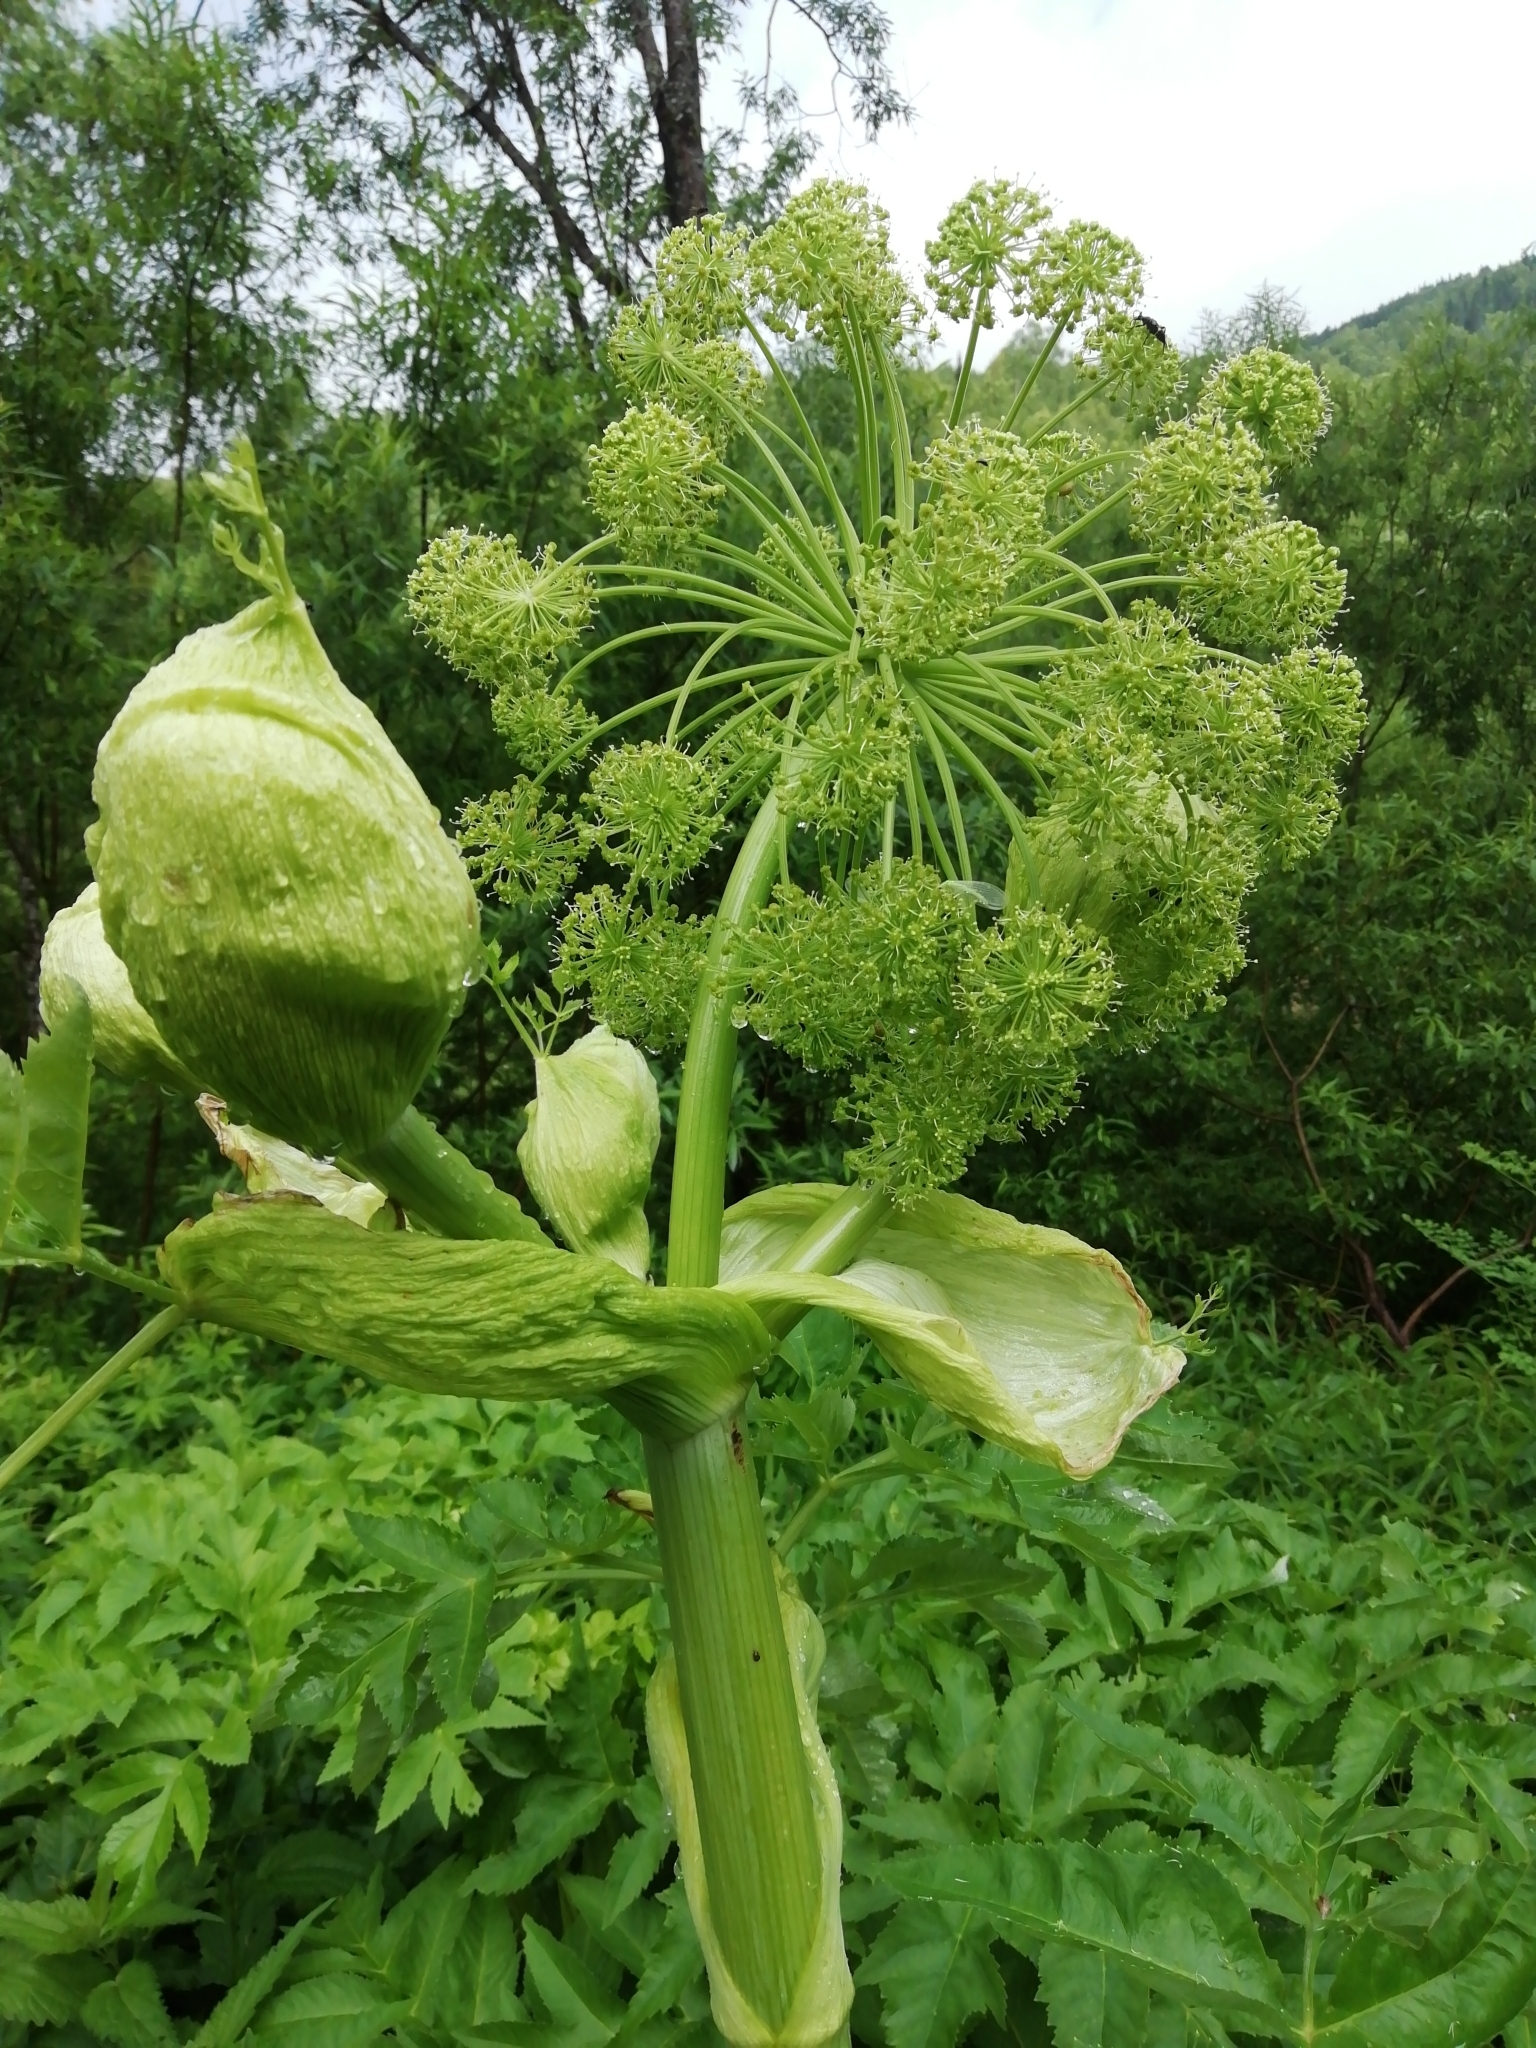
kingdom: Plantae
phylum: Tracheophyta
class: Magnoliopsida
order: Apiales
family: Apiaceae
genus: Angelica
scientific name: Angelica decurrens
